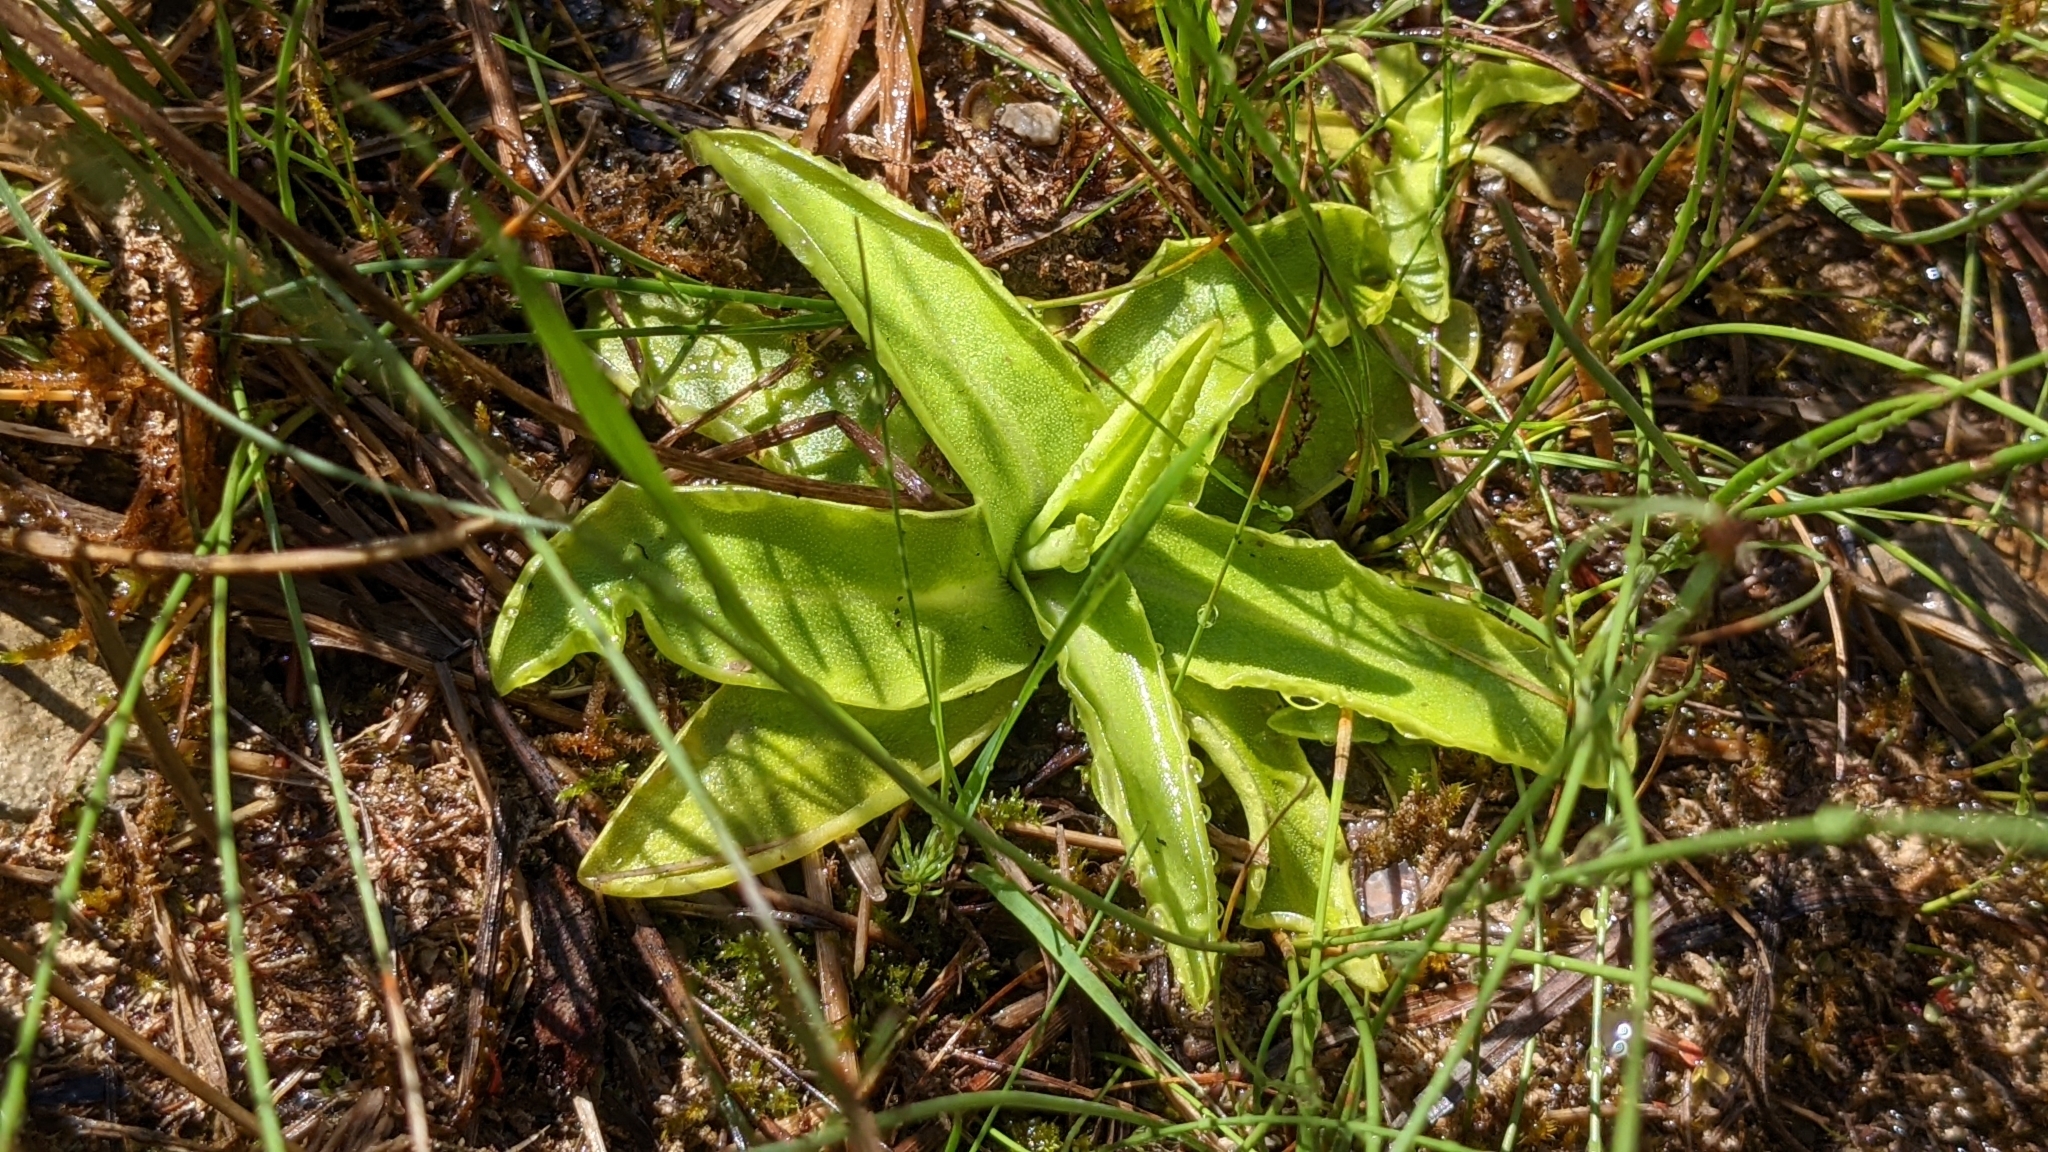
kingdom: Plantae
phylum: Tracheophyta
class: Magnoliopsida
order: Lamiales
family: Lentibulariaceae
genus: Pinguicula
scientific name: Pinguicula vulgaris
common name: Common butterwort
